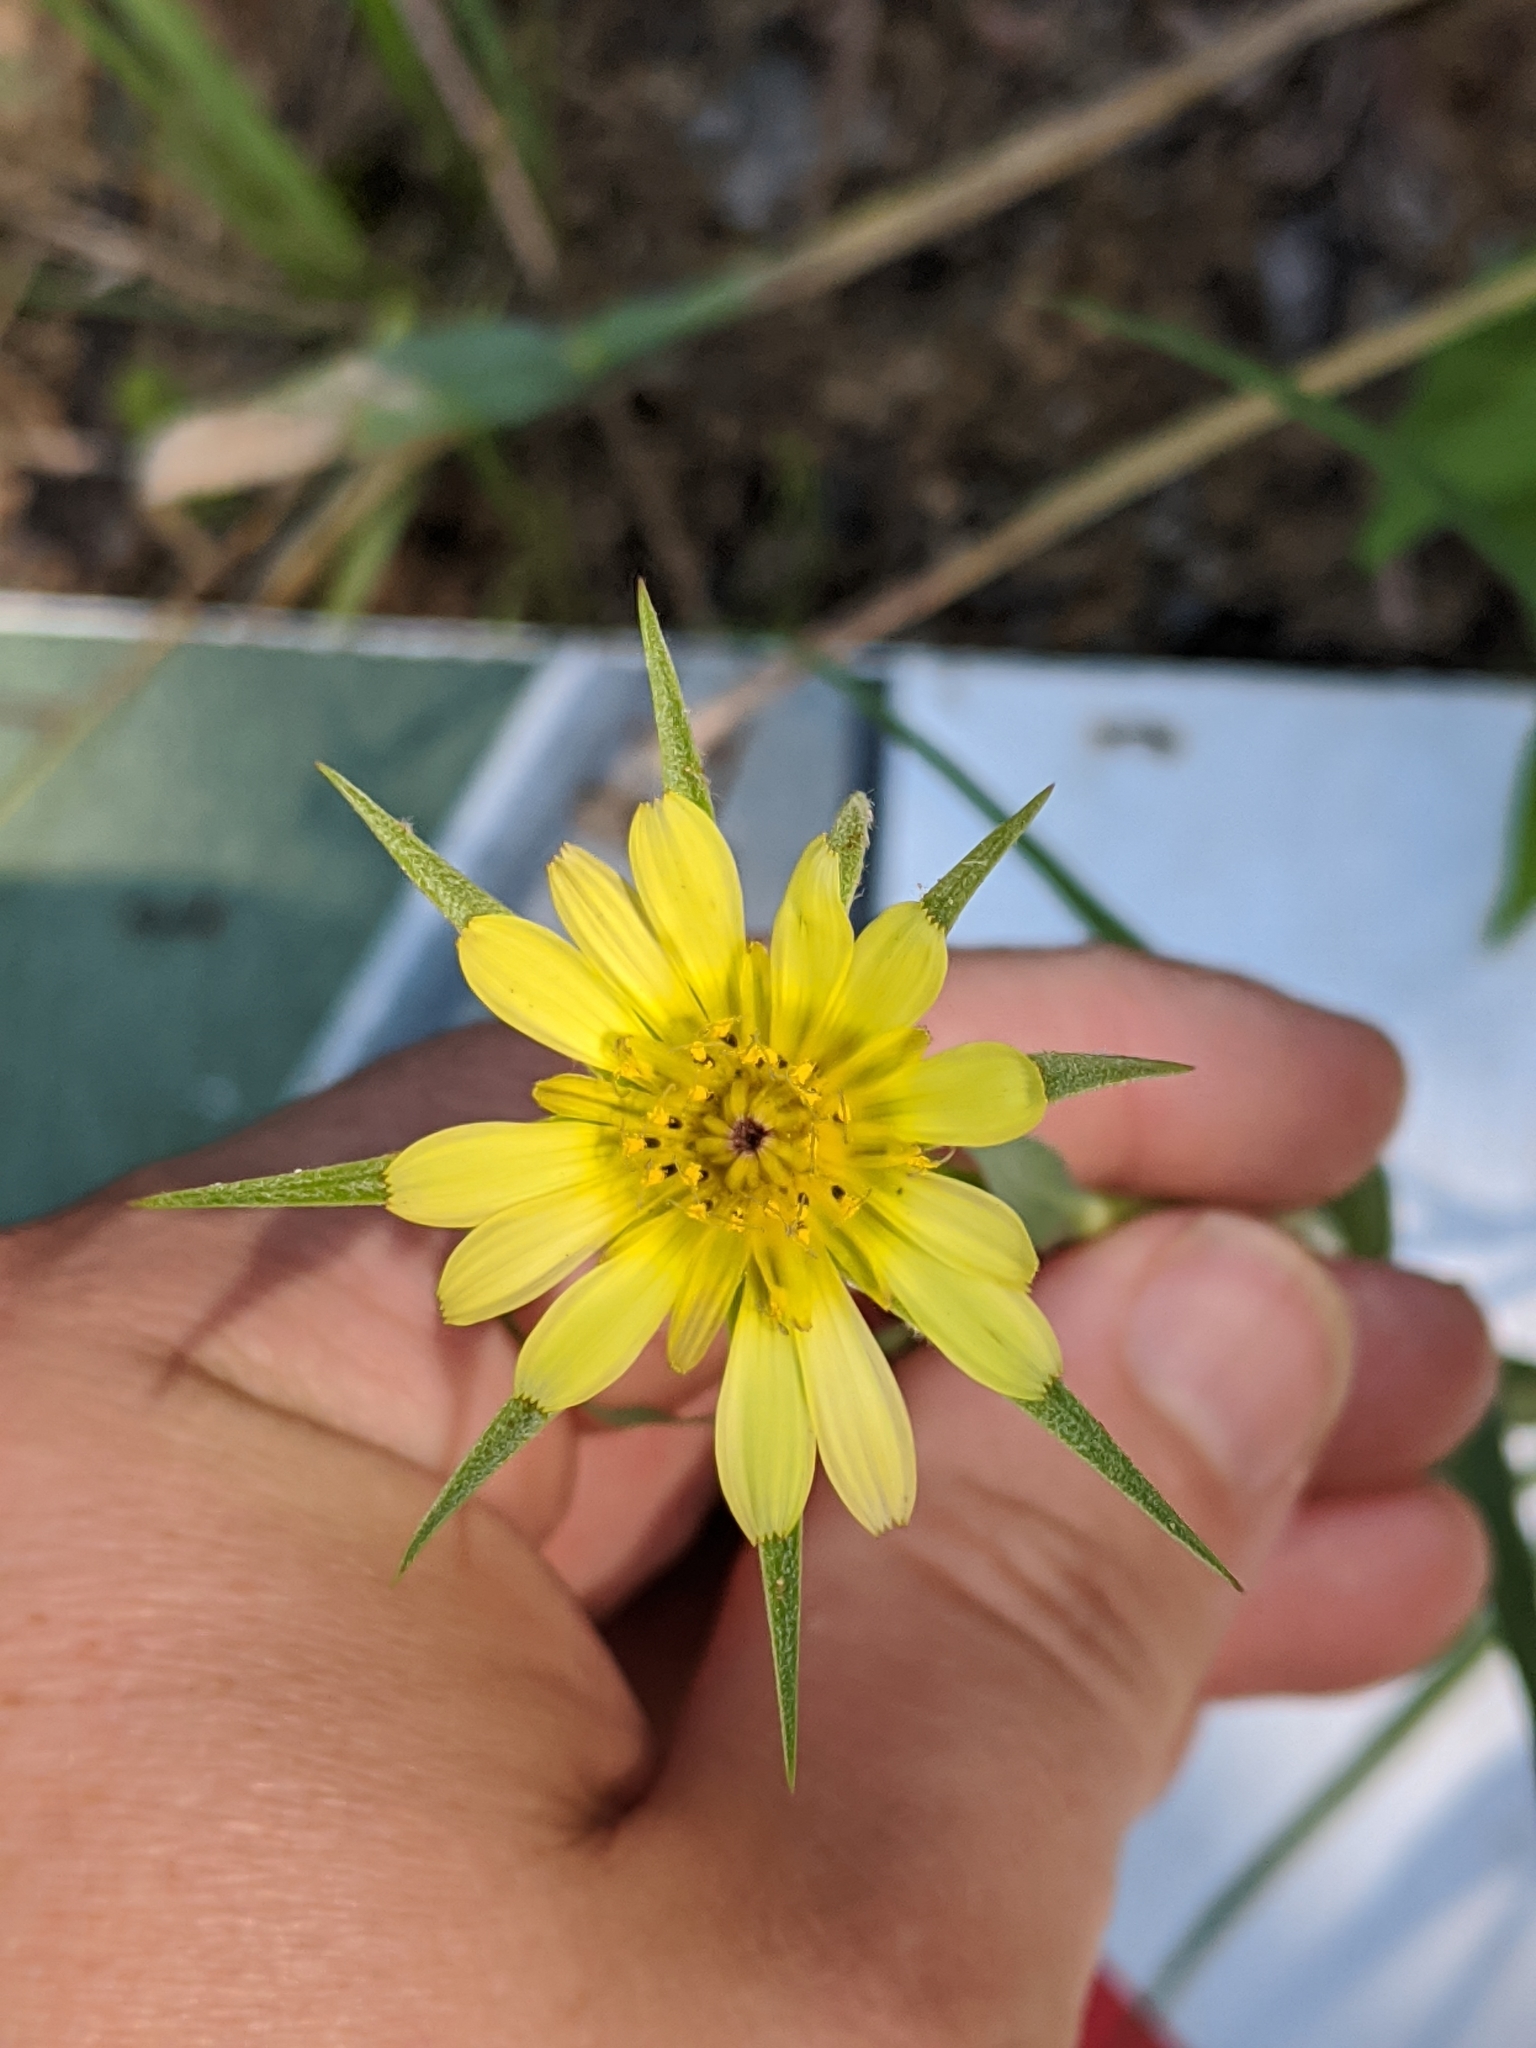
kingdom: Plantae
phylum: Tracheophyta
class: Magnoliopsida
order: Asterales
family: Asteraceae
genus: Tragopogon
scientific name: Tragopogon dubius
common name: Yellow salsify
